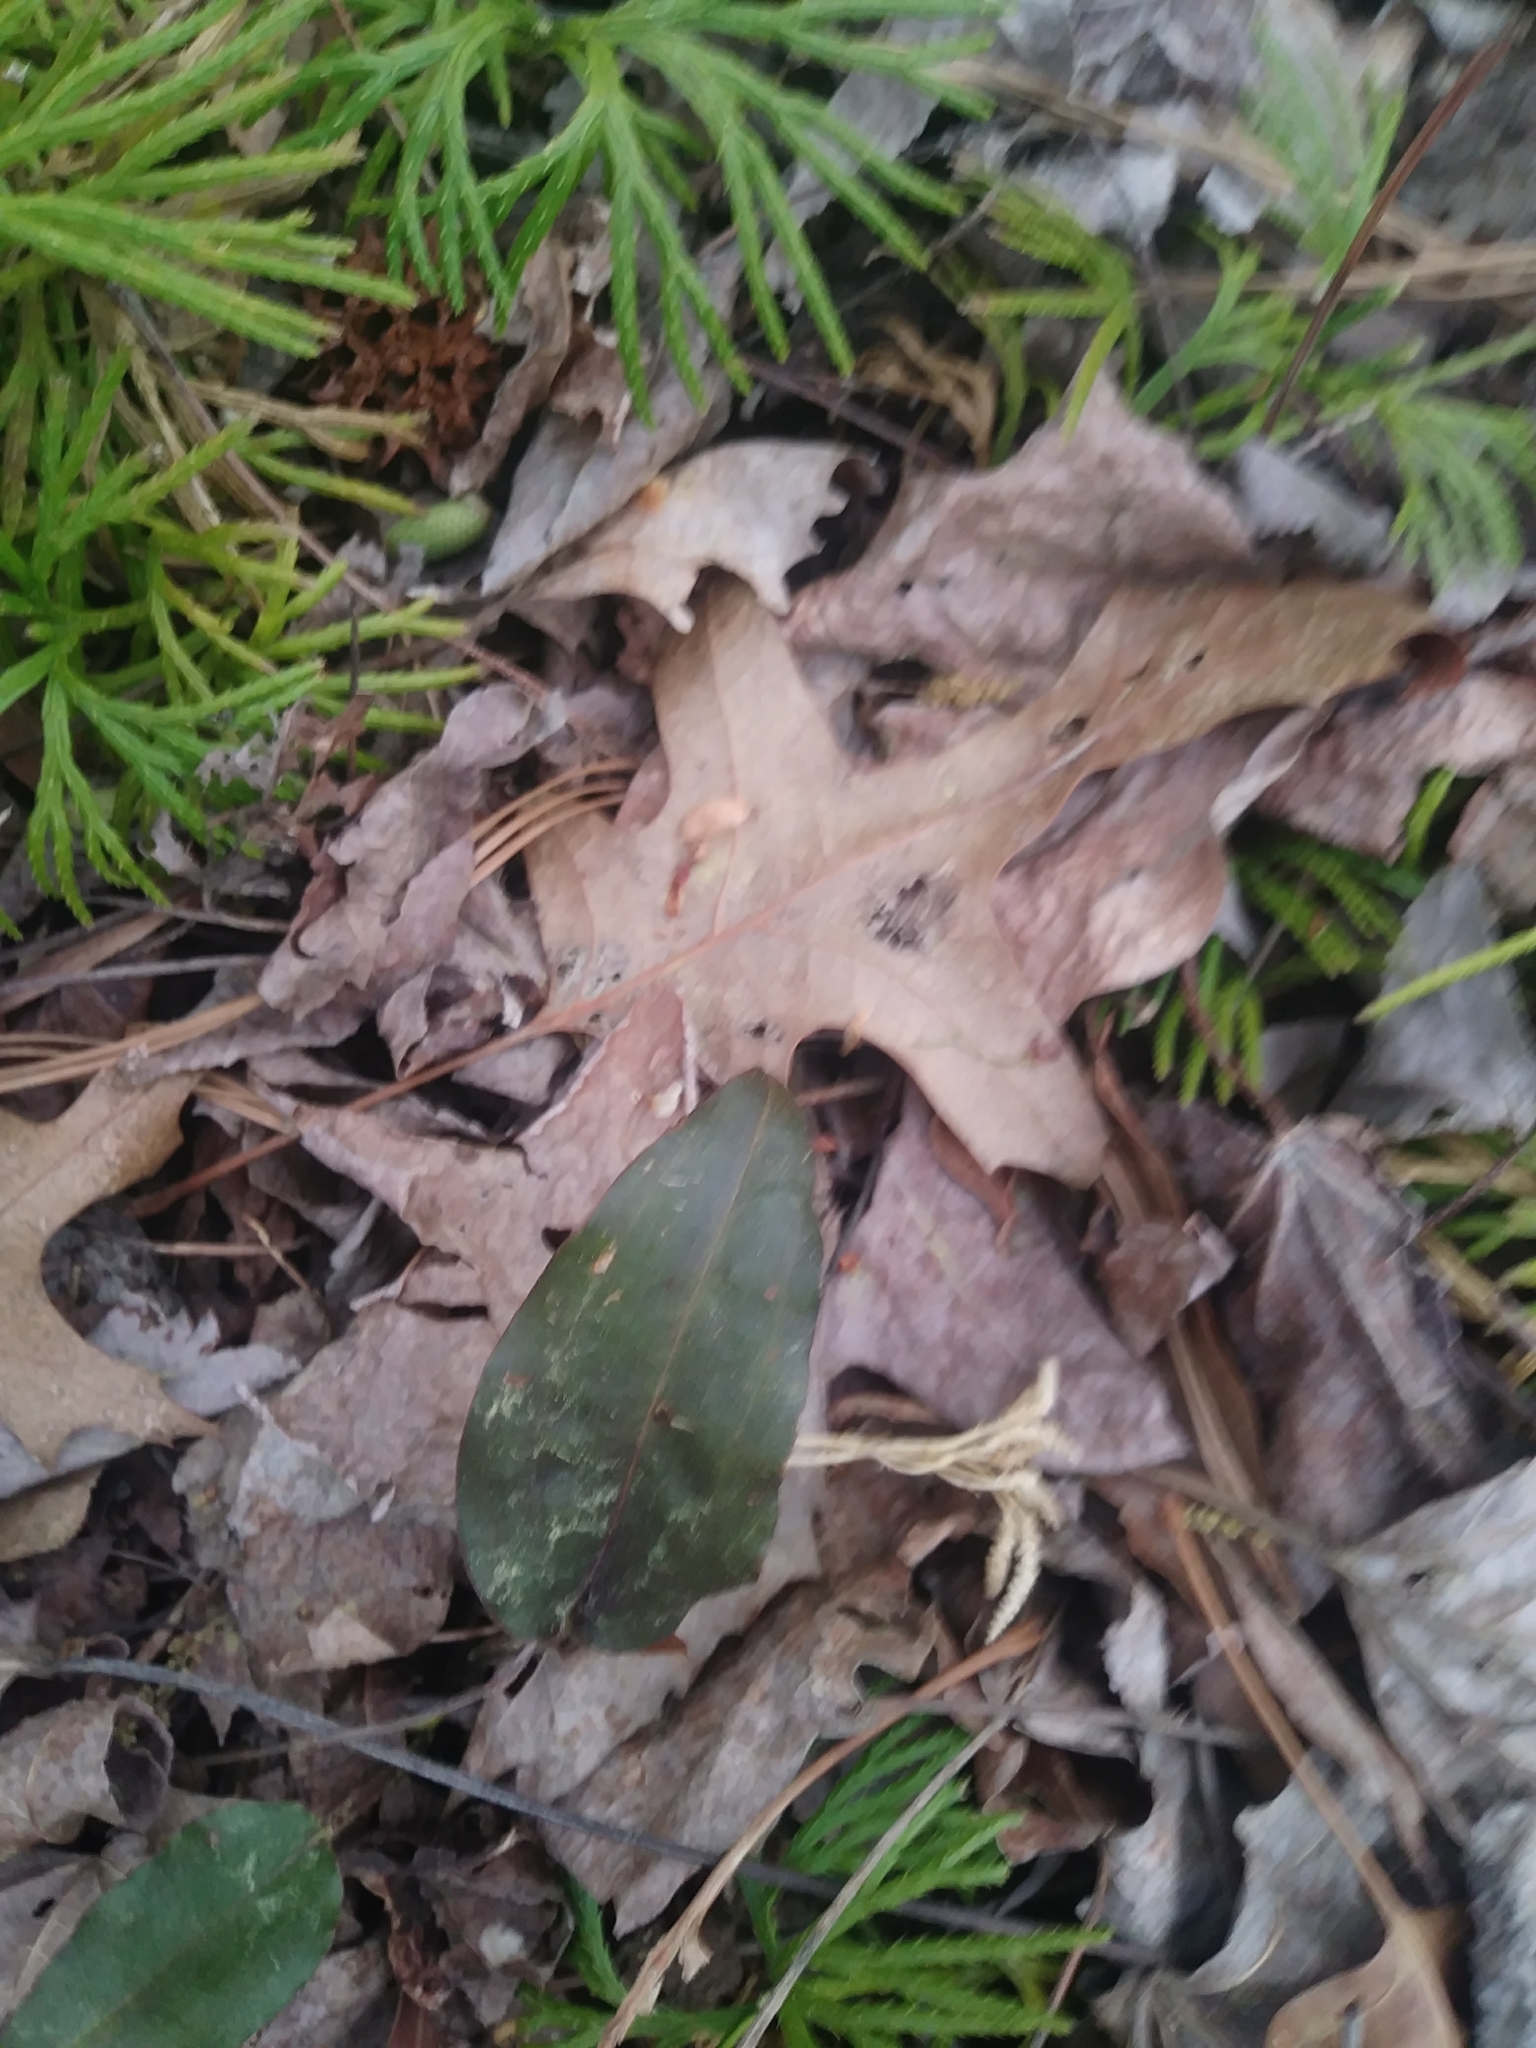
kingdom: Plantae
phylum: Tracheophyta
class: Liliopsida
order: Asparagales
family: Orchidaceae
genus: Tipularia
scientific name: Tipularia discolor
